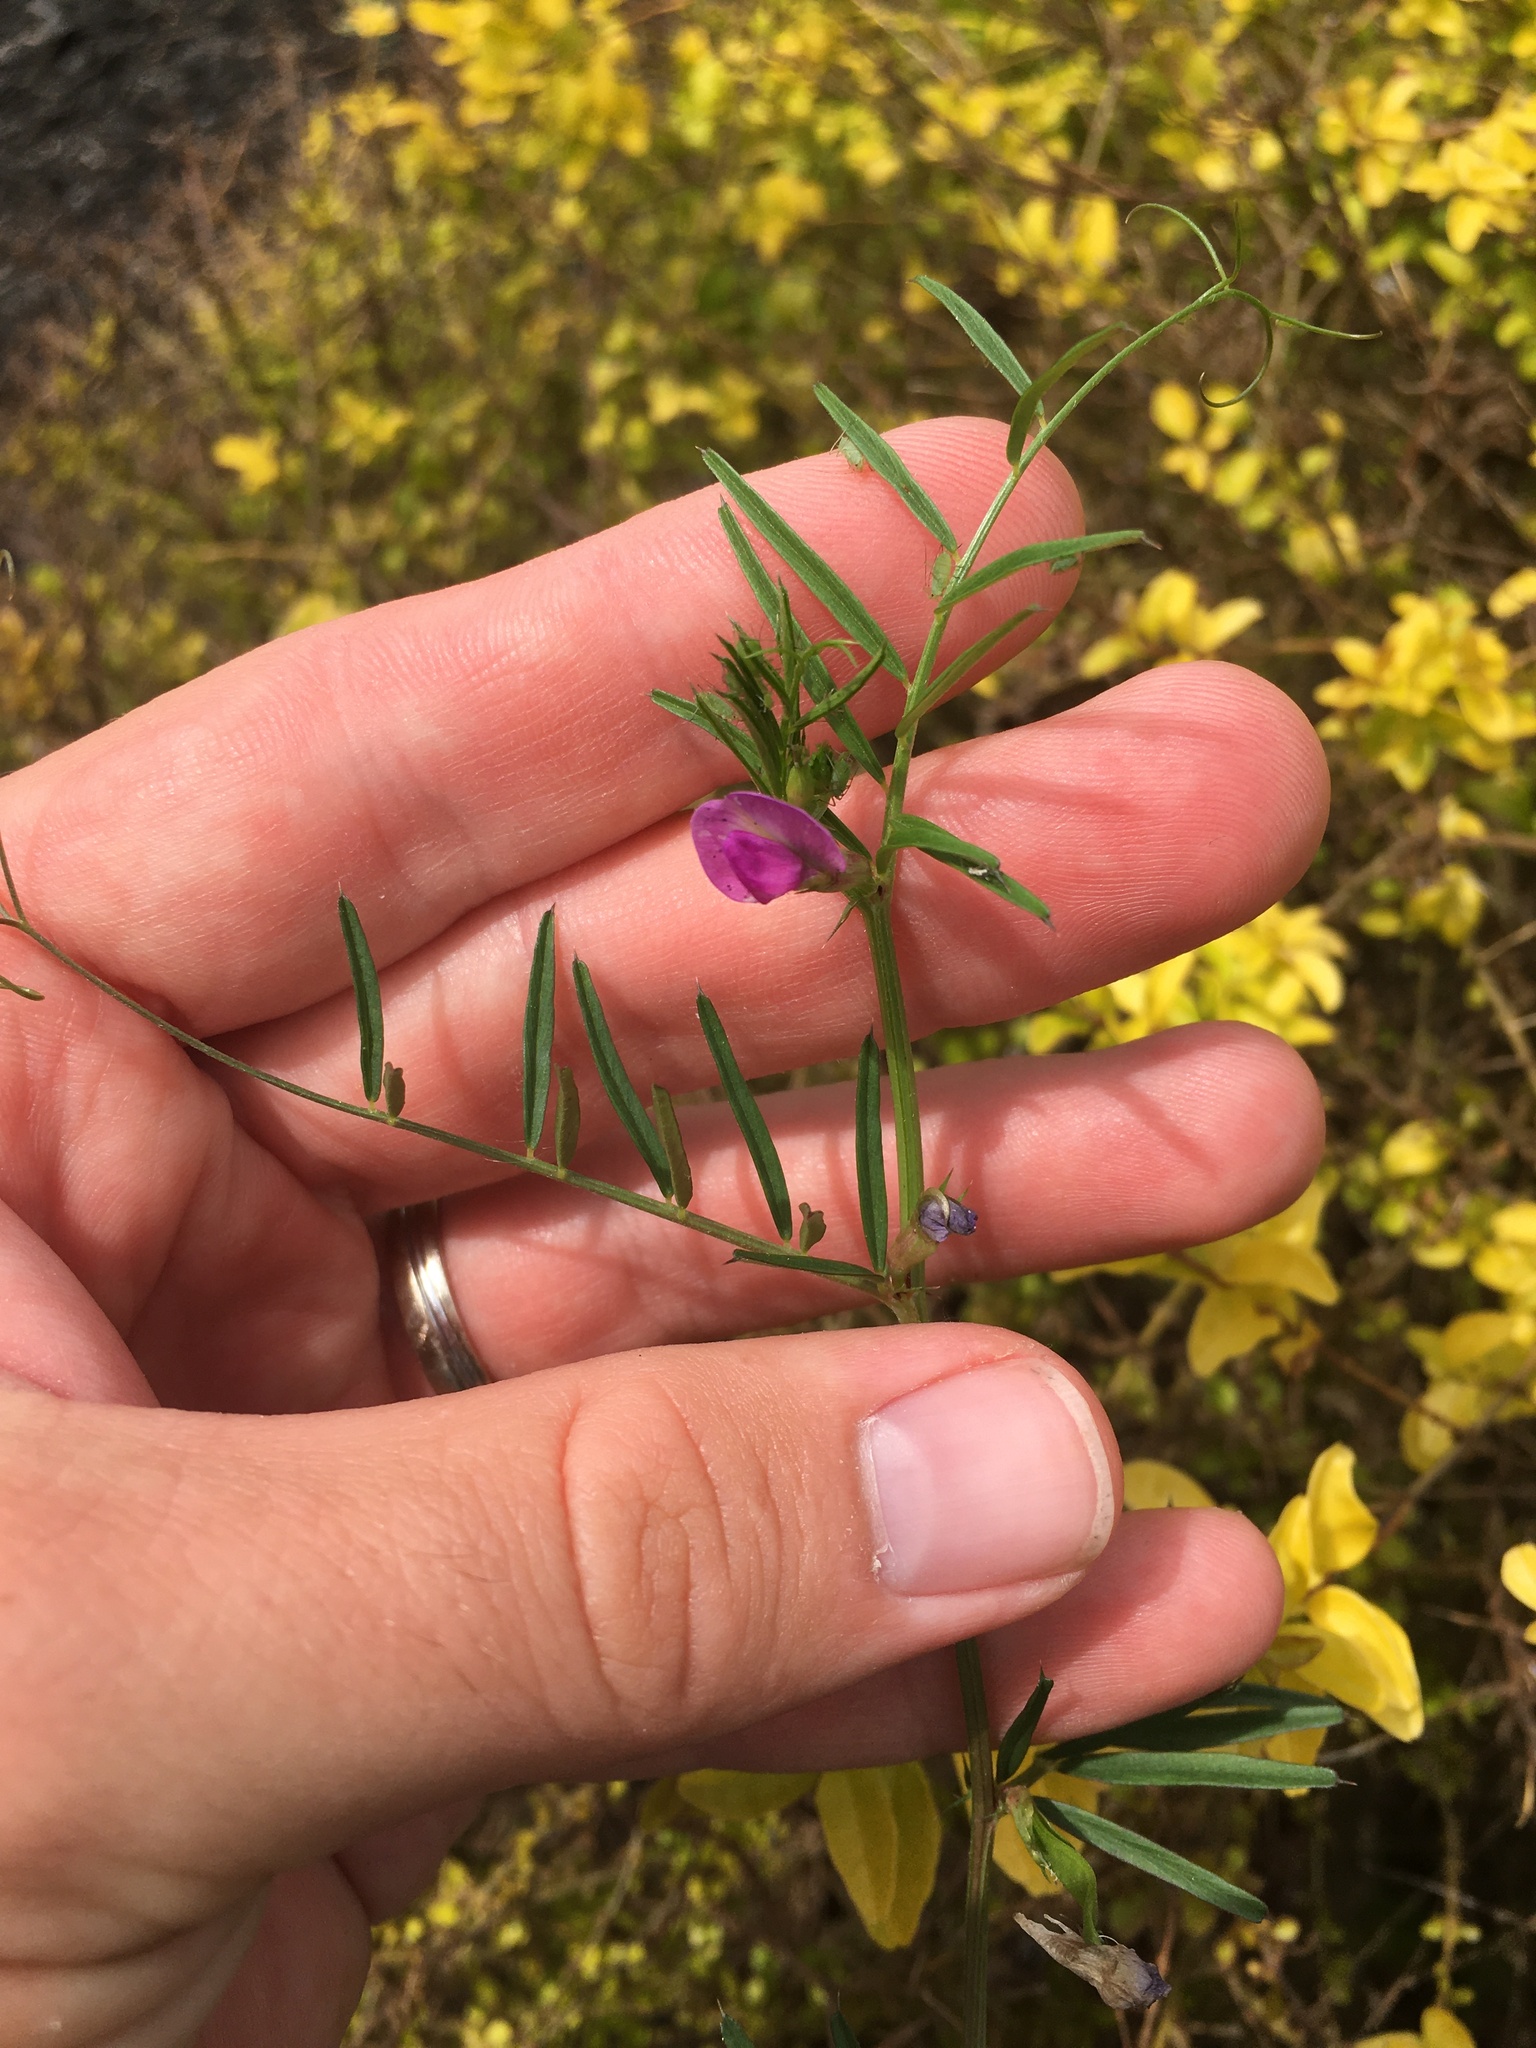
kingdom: Plantae
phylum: Tracheophyta
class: Magnoliopsida
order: Fabales
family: Fabaceae
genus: Vicia
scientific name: Vicia sativa
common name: Garden vetch
